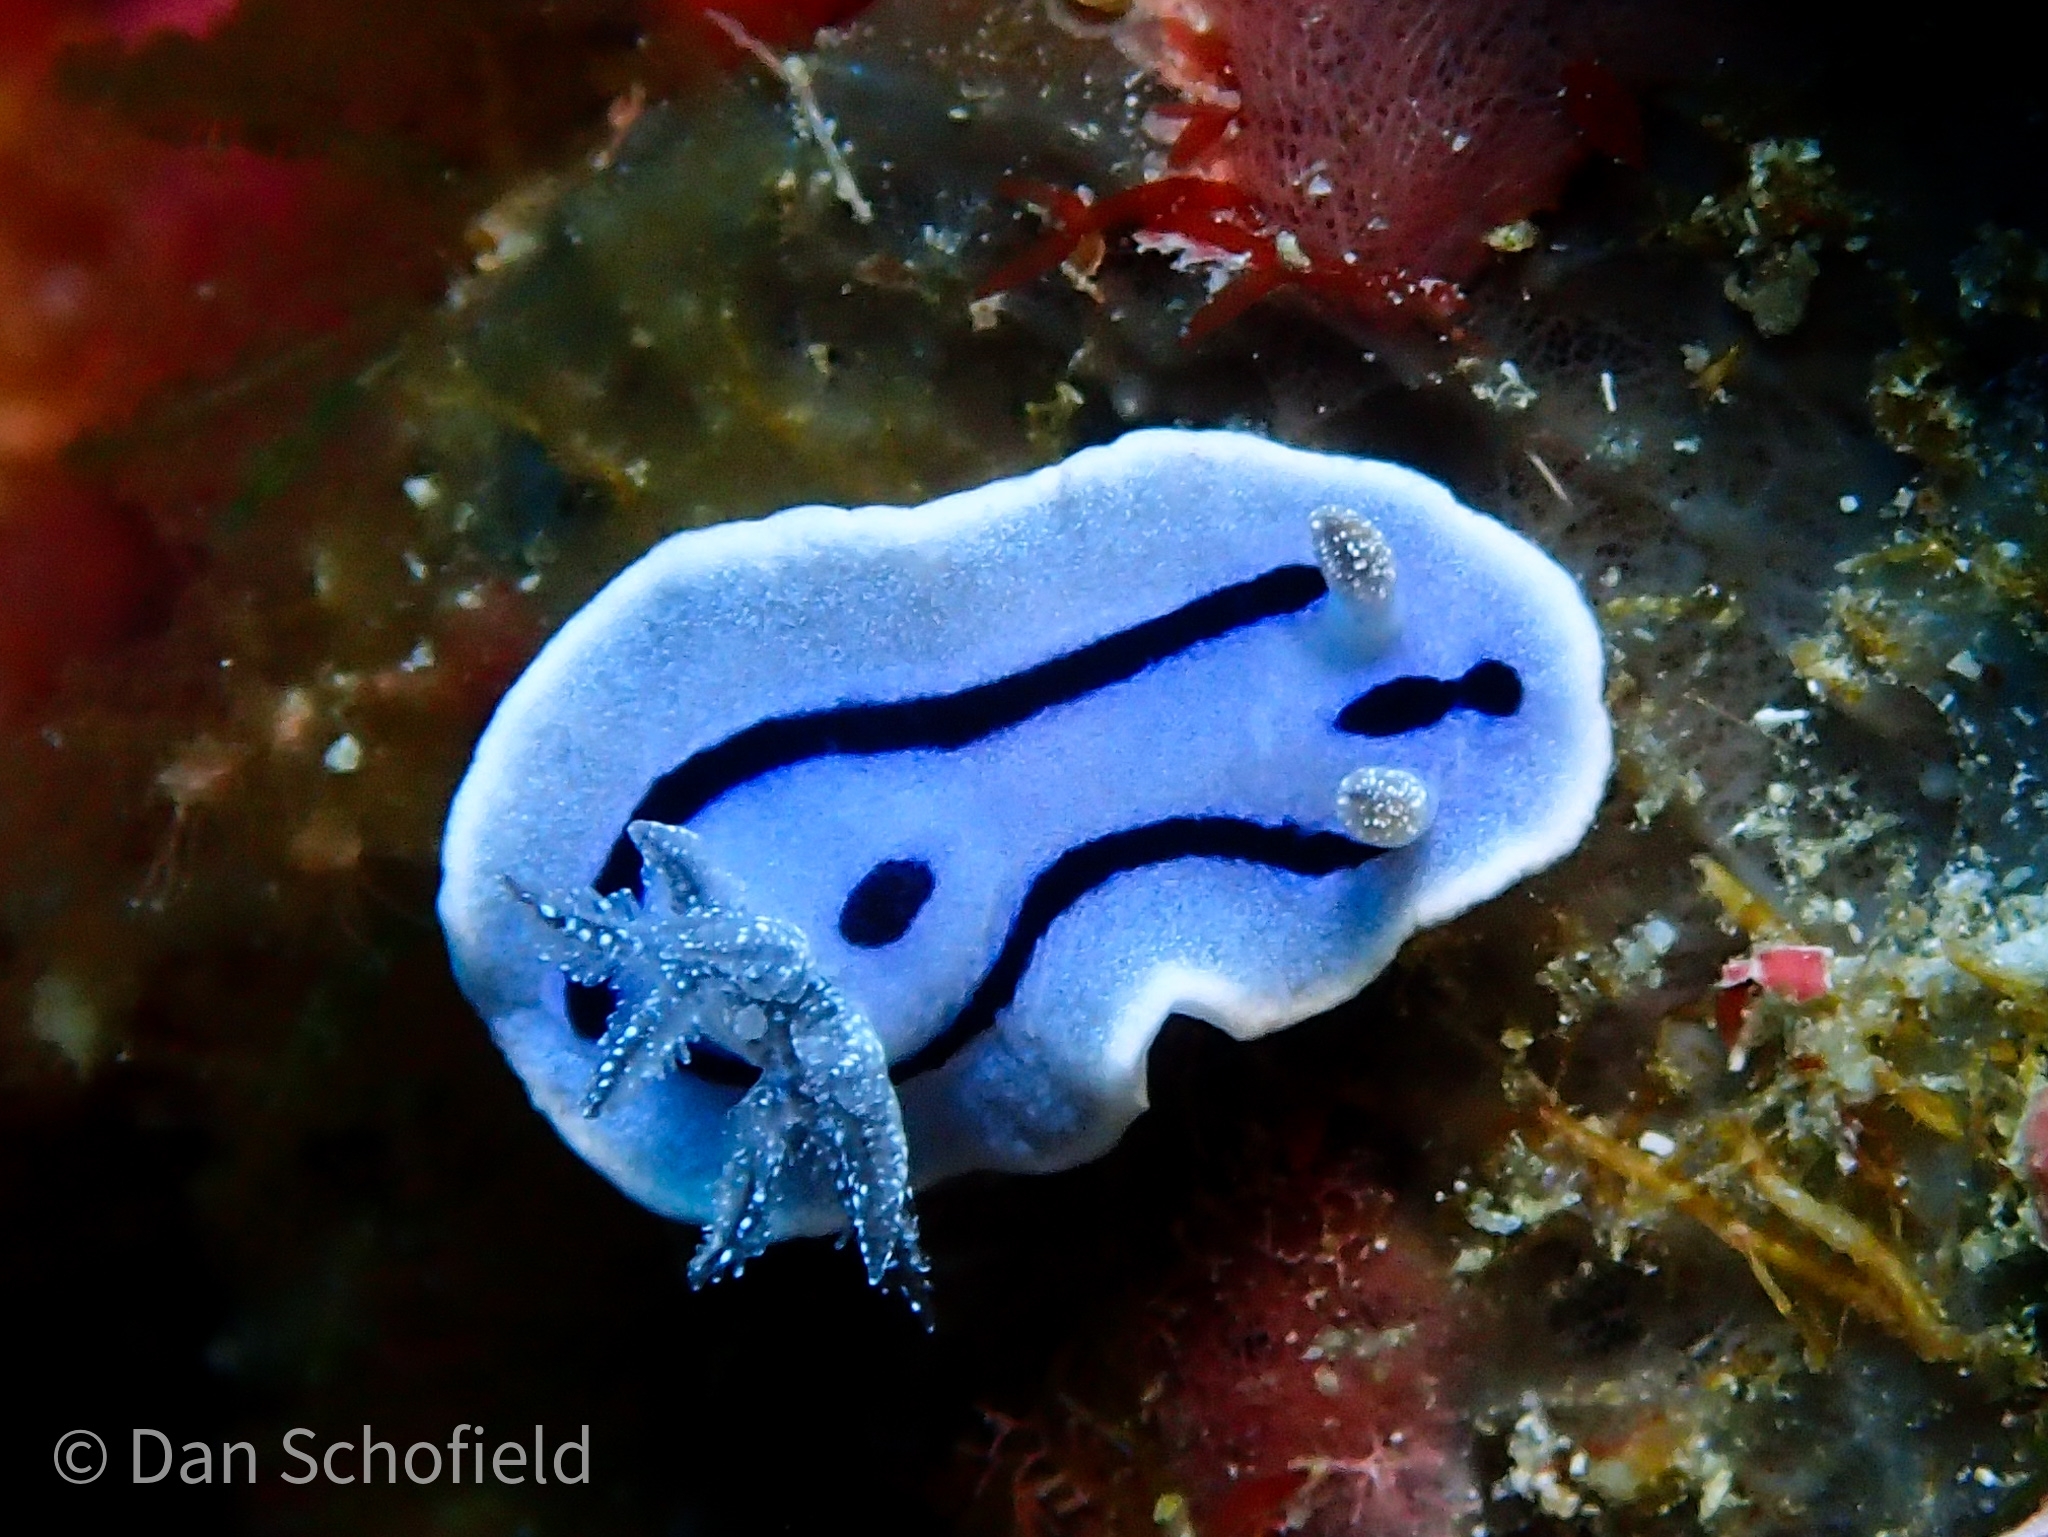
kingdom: Animalia
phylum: Mollusca
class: Gastropoda
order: Nudibranchia
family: Chromodorididae
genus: Chromodoris
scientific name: Chromodoris willani
